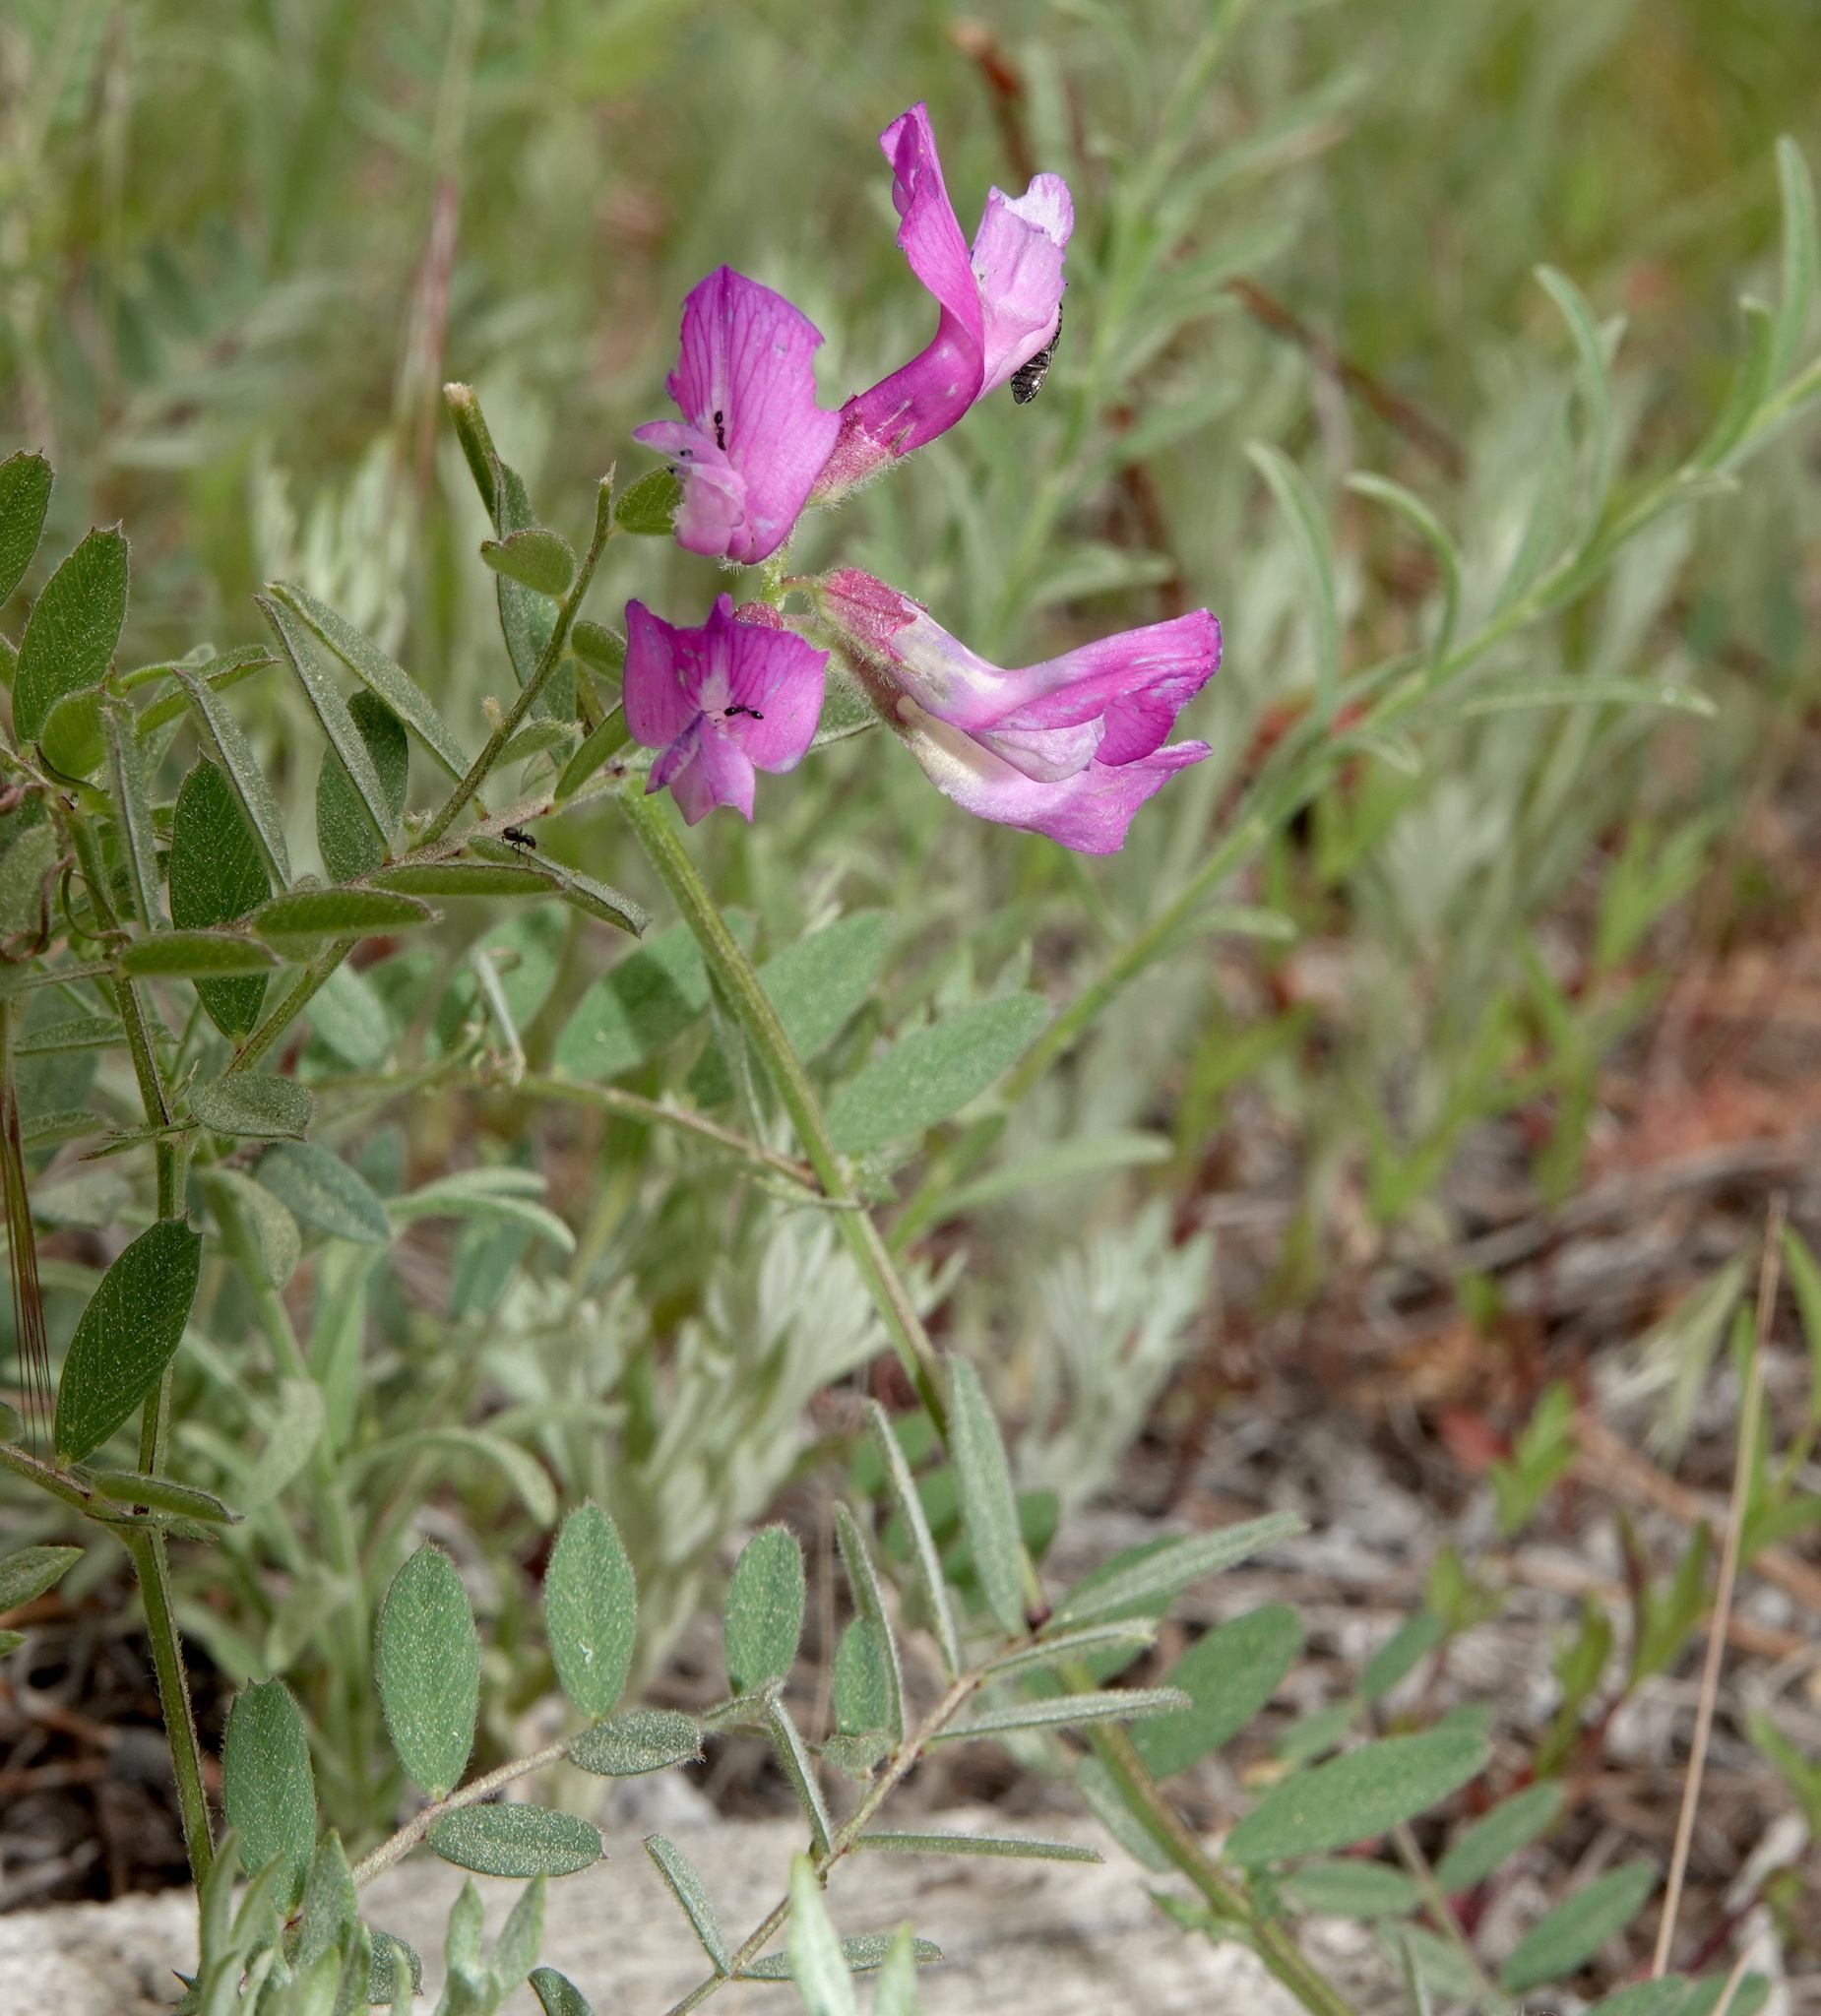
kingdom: Plantae
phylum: Tracheophyta
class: Magnoliopsida
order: Fabales
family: Fabaceae
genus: Vicia
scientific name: Vicia americana
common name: American vetch
